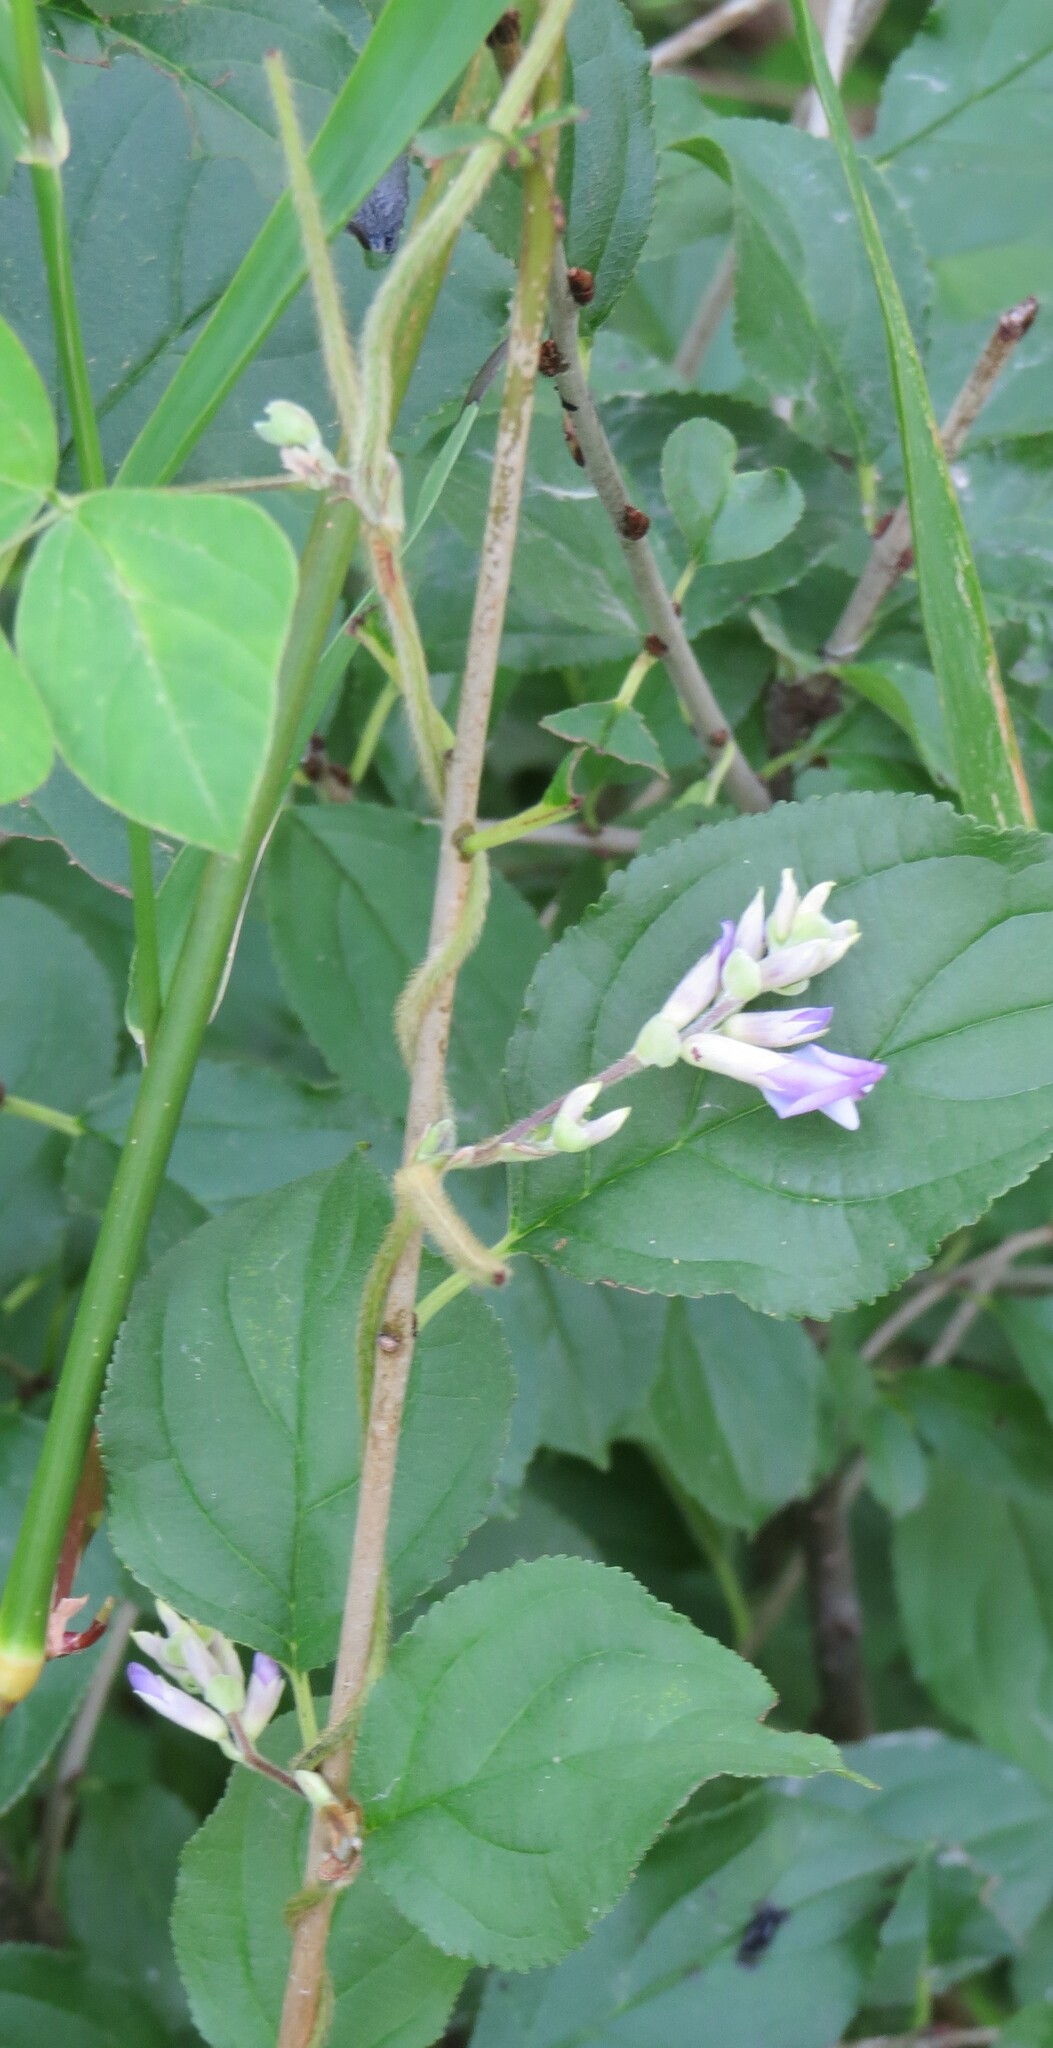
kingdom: Plantae
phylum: Tracheophyta
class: Magnoliopsida
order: Fabales
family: Fabaceae
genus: Amphicarpaea
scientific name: Amphicarpaea bracteata
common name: American hog peanut
